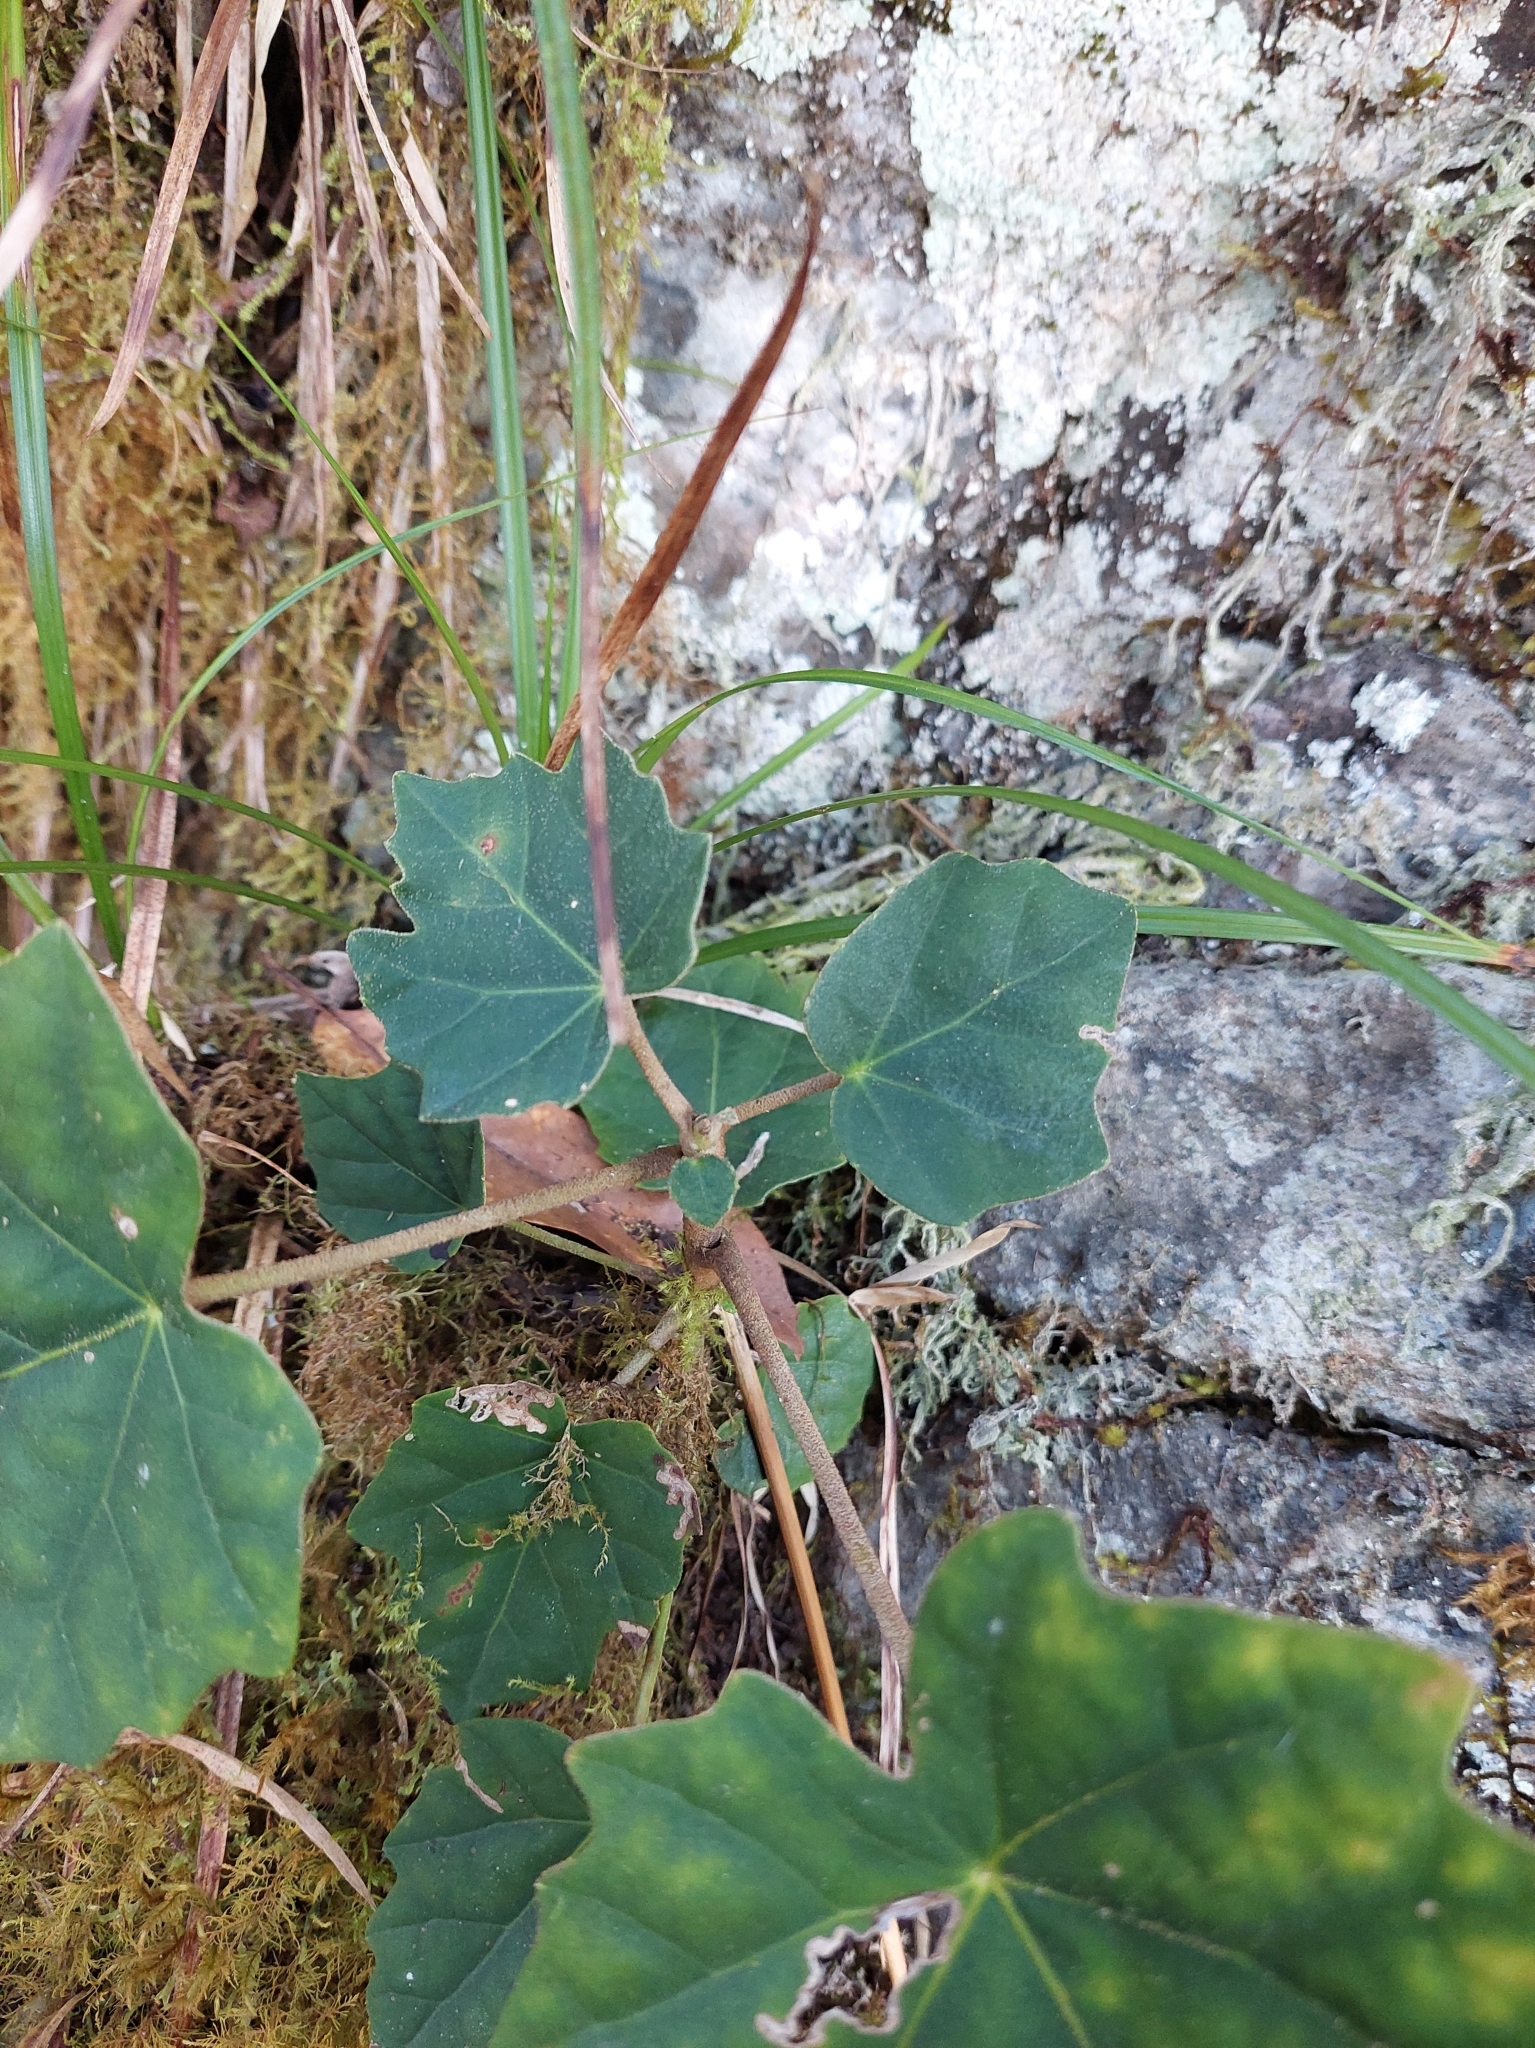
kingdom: Plantae
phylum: Tracheophyta
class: Magnoliopsida
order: Apiales
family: Araliaceae
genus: Sinopanax
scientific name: Sinopanax formosanus
